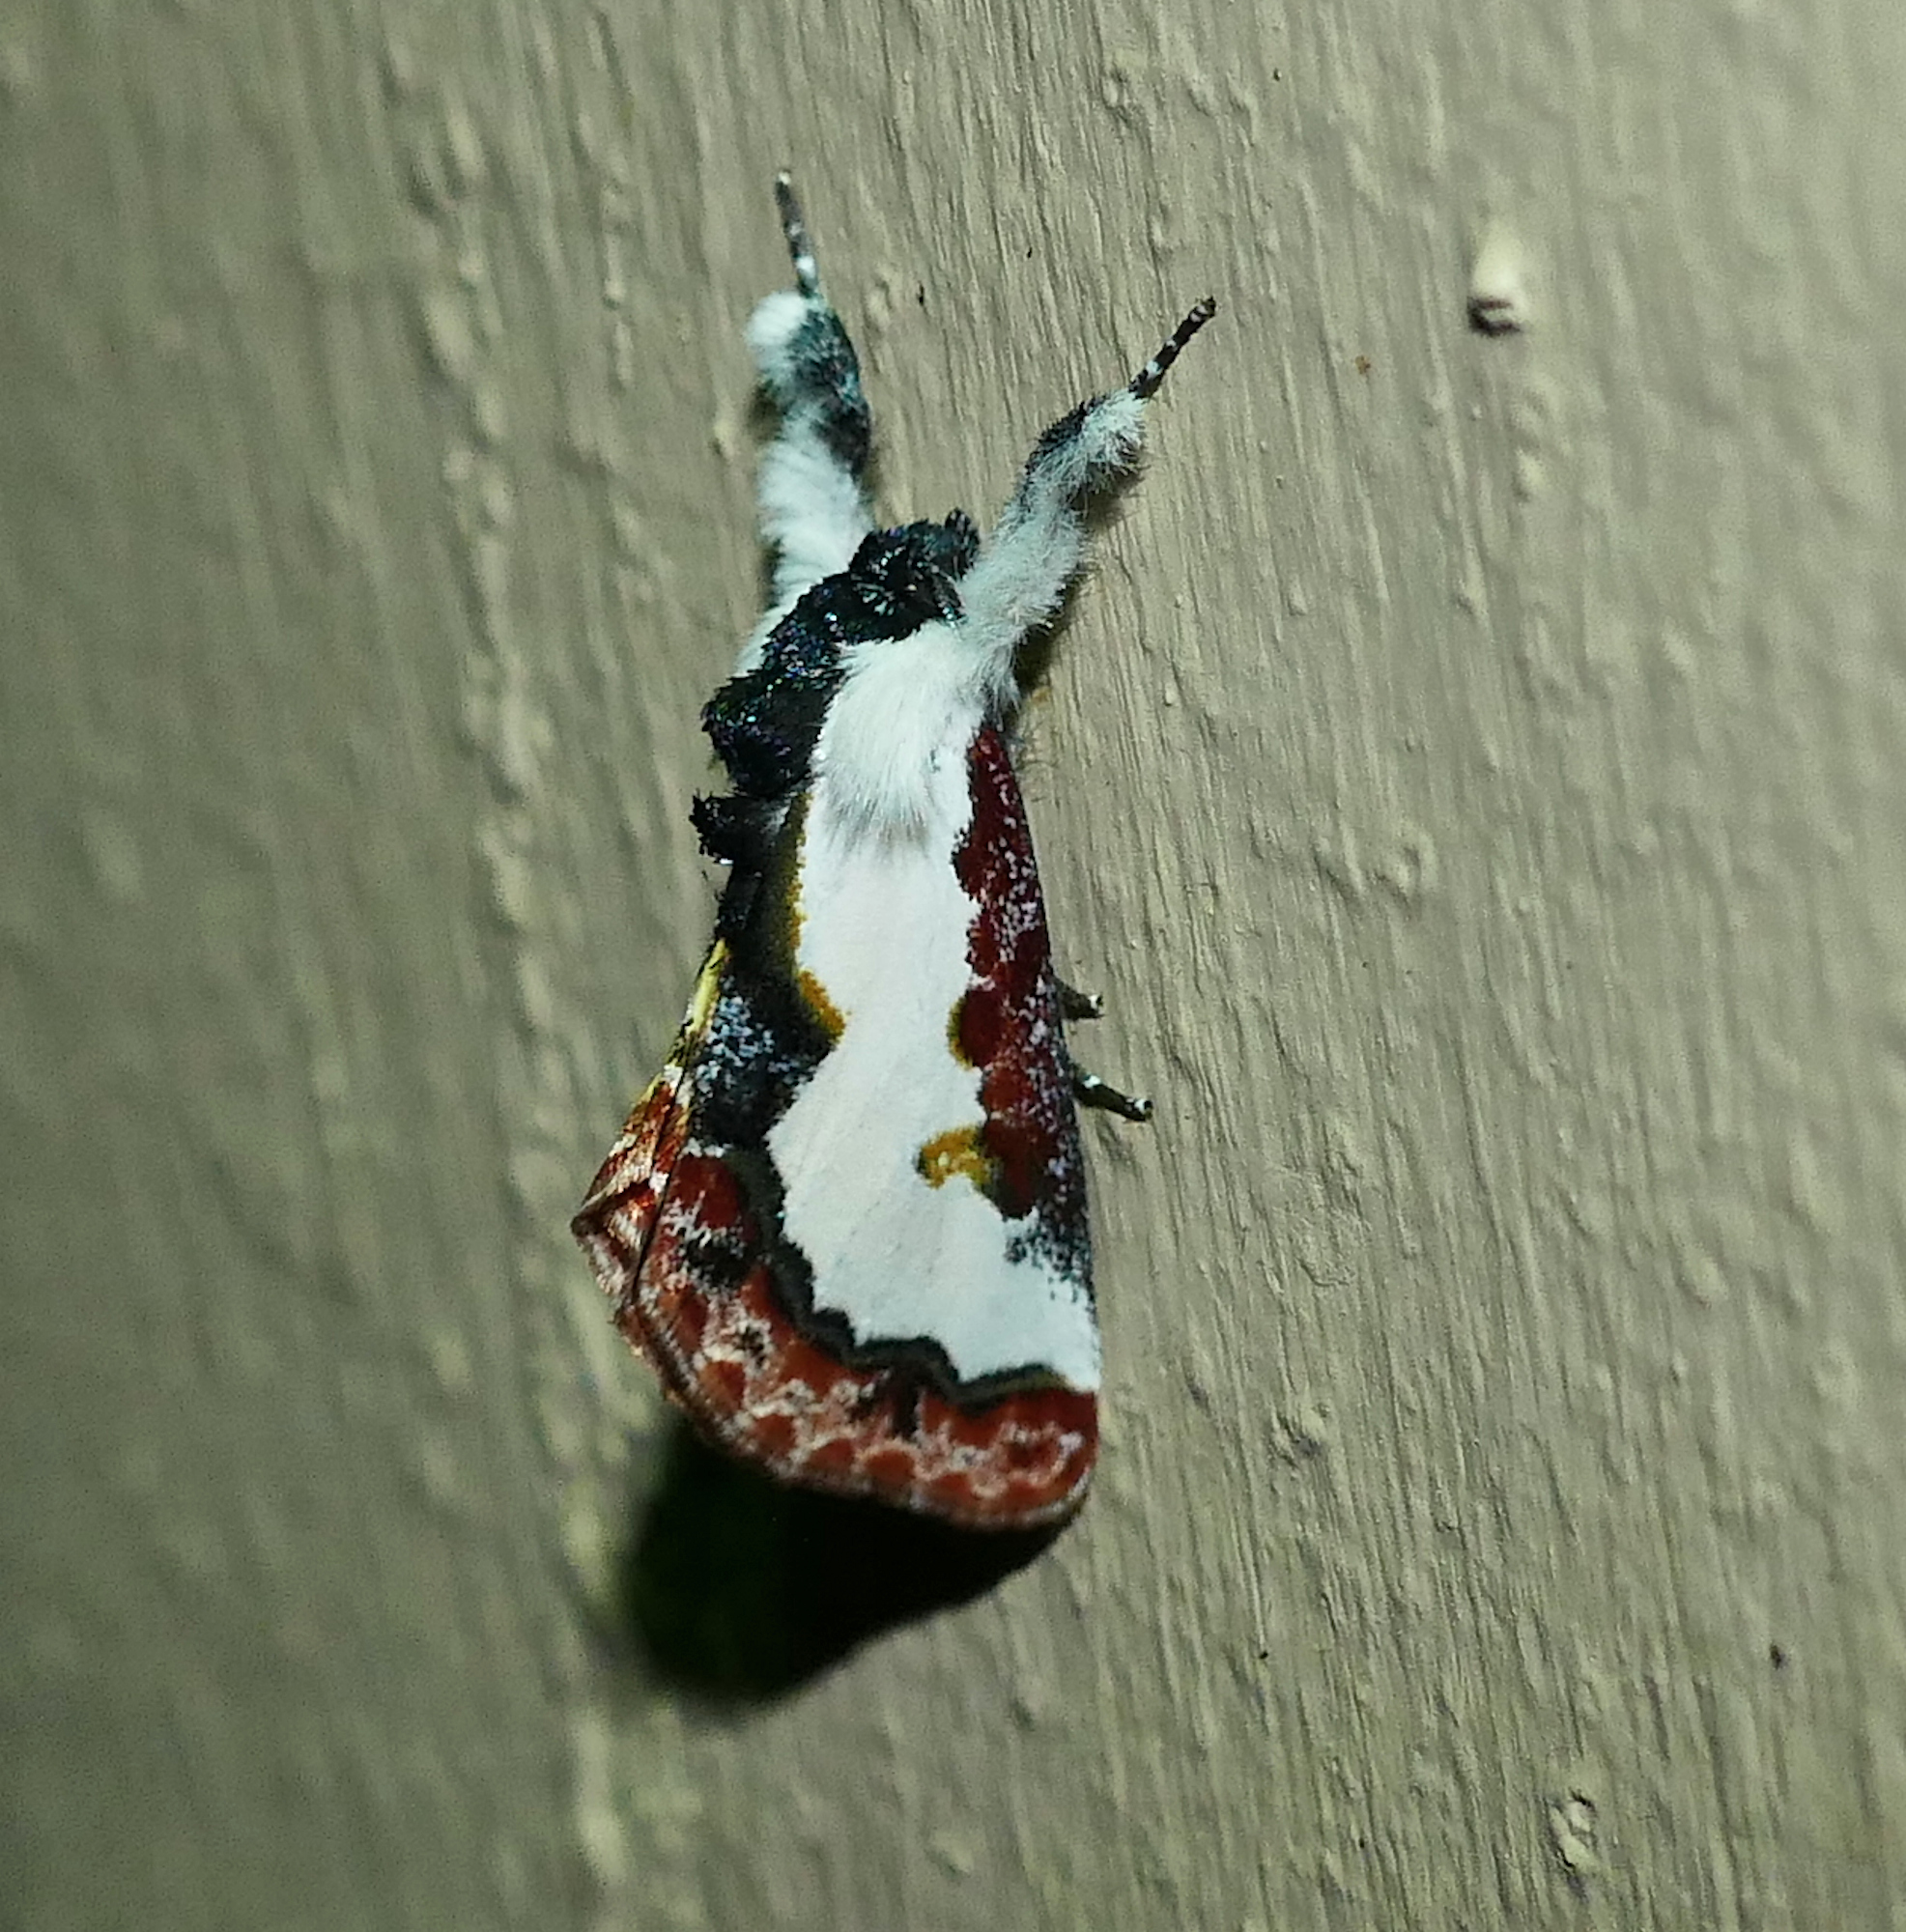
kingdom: Animalia
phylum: Arthropoda
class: Insecta
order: Lepidoptera
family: Noctuidae
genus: Eudryas
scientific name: Eudryas unio
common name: Pearly wood-nymph
